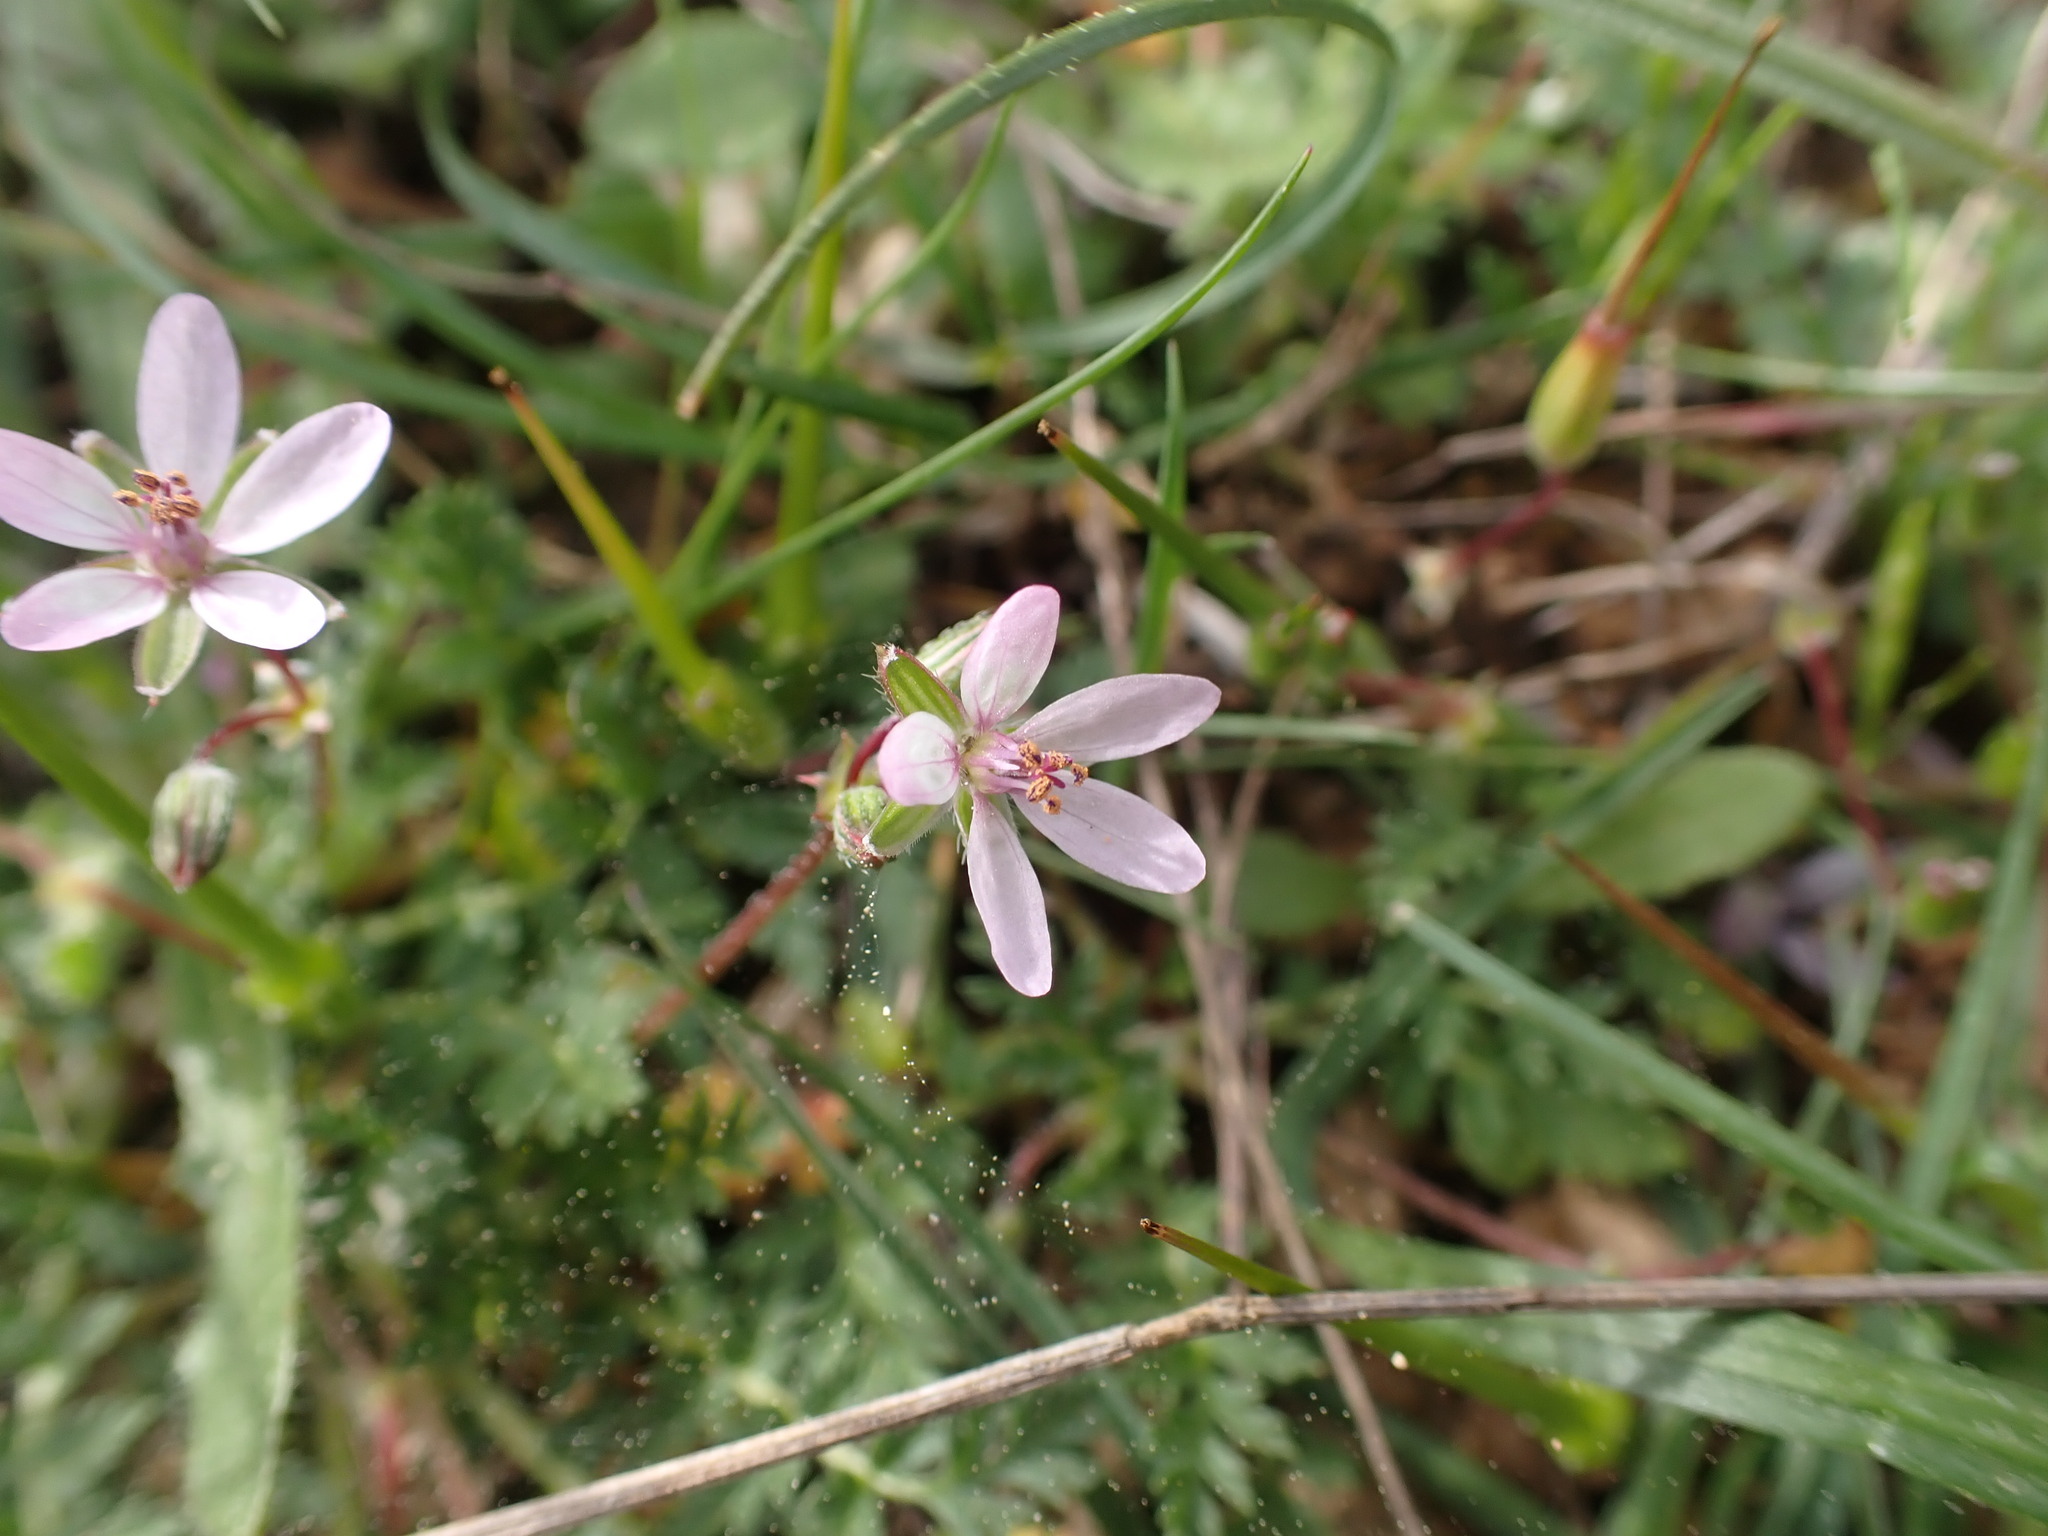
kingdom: Plantae
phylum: Tracheophyta
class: Magnoliopsida
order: Geraniales
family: Geraniaceae
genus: Erodium
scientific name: Erodium cicutarium
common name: Common stork's-bill
